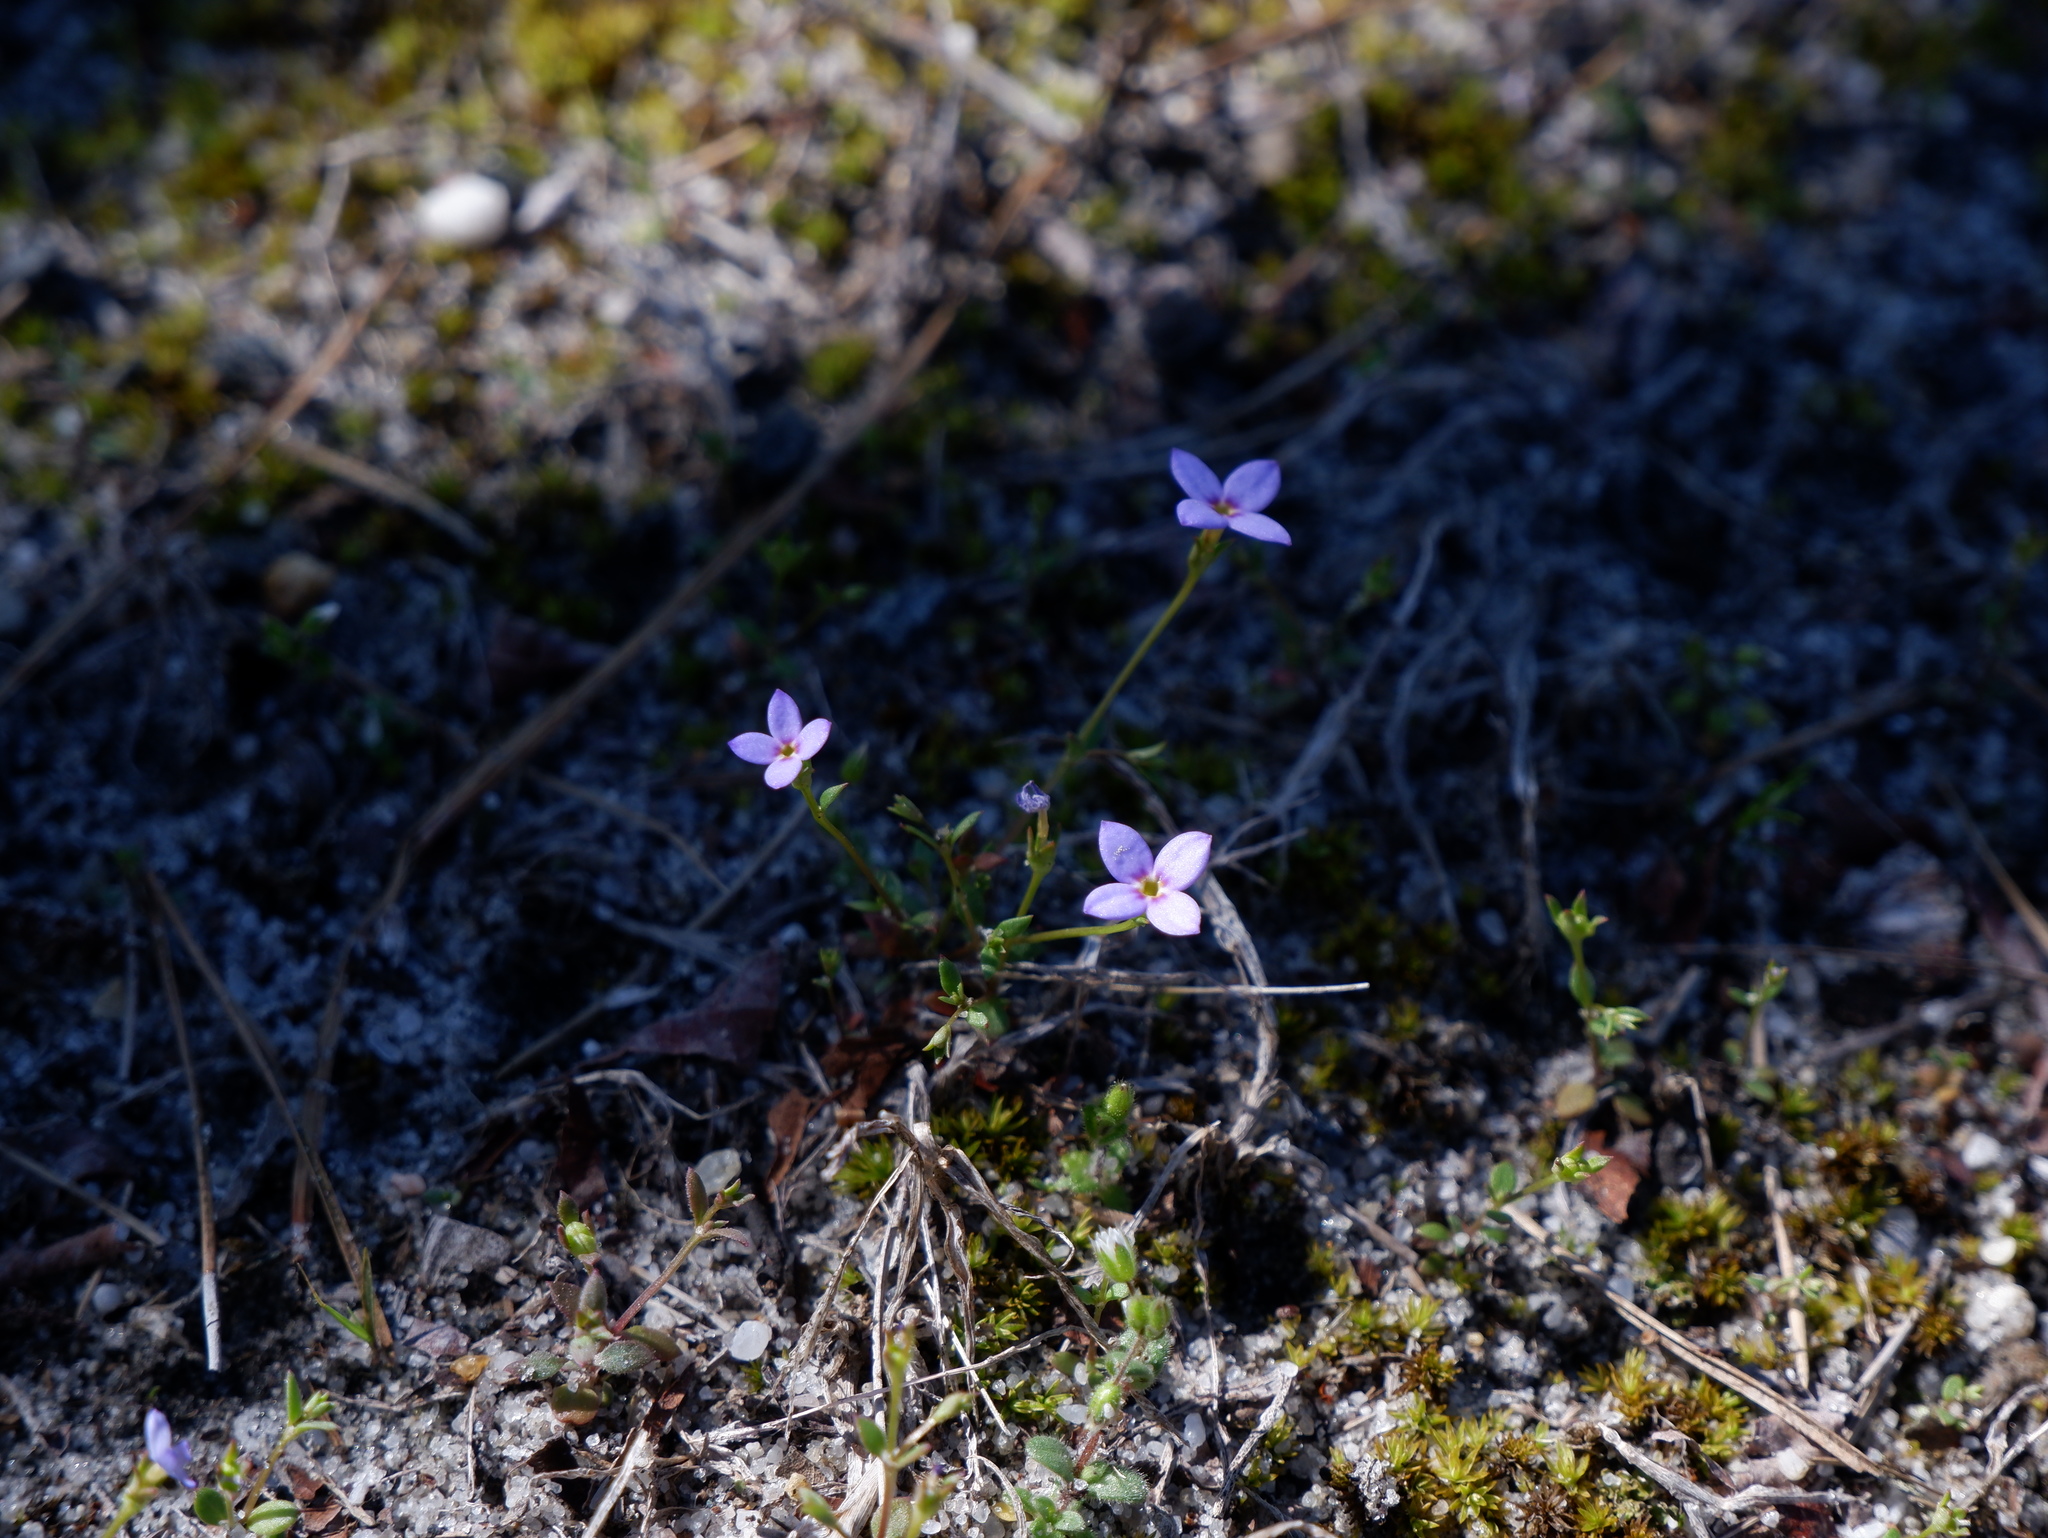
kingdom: Plantae
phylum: Tracheophyta
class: Magnoliopsida
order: Gentianales
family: Rubiaceae
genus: Houstonia
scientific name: Houstonia pusilla
